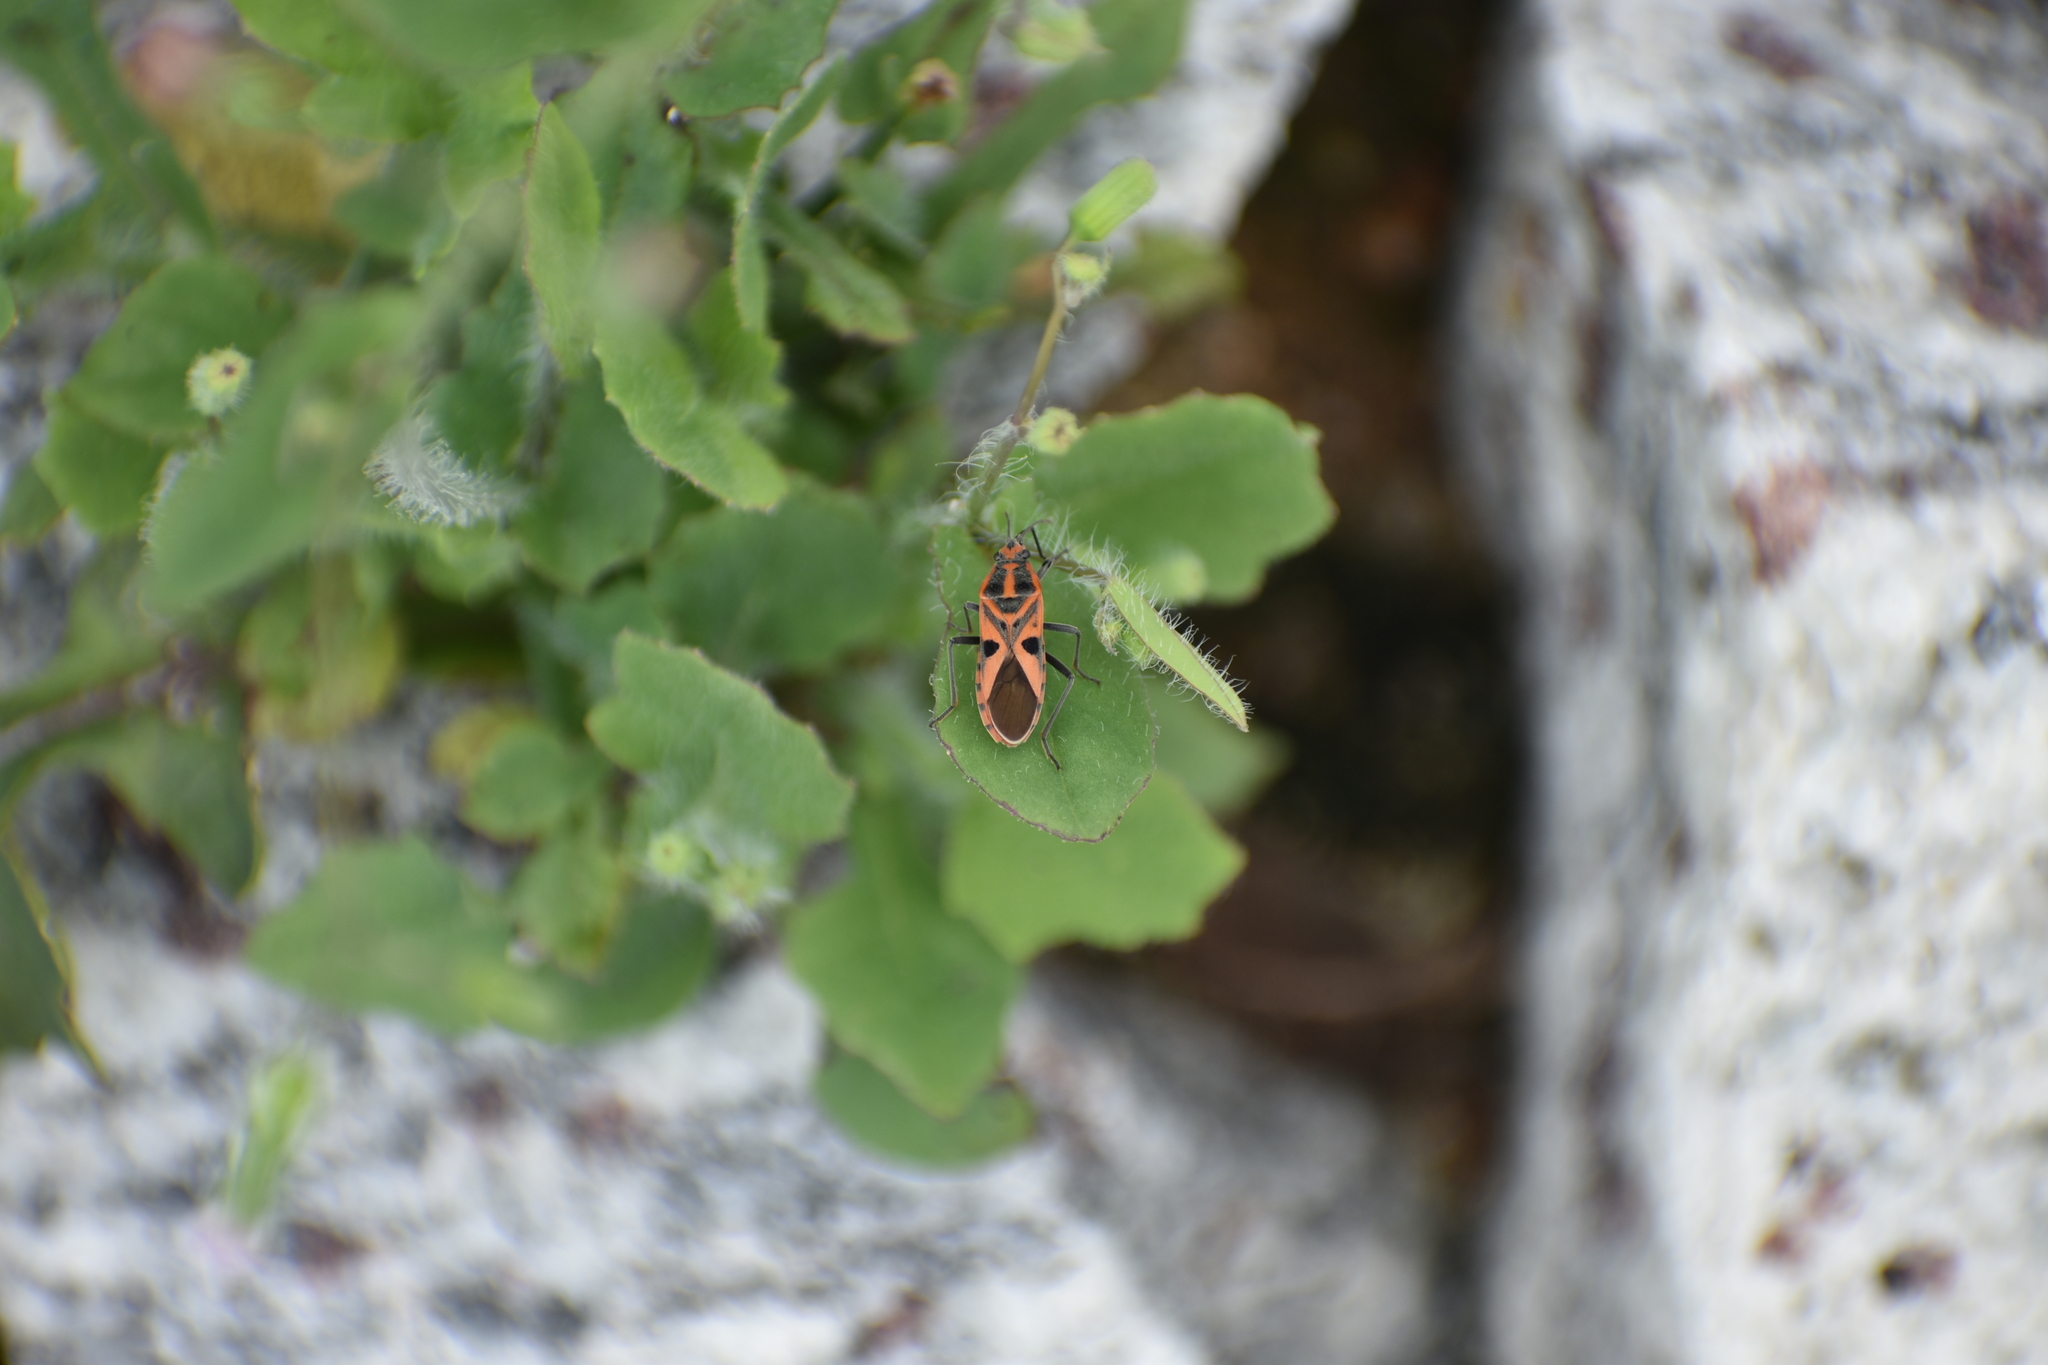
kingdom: Animalia
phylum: Arthropoda
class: Insecta
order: Hemiptera
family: Lygaeidae
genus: Spilostethus
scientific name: Spilostethus hospes
